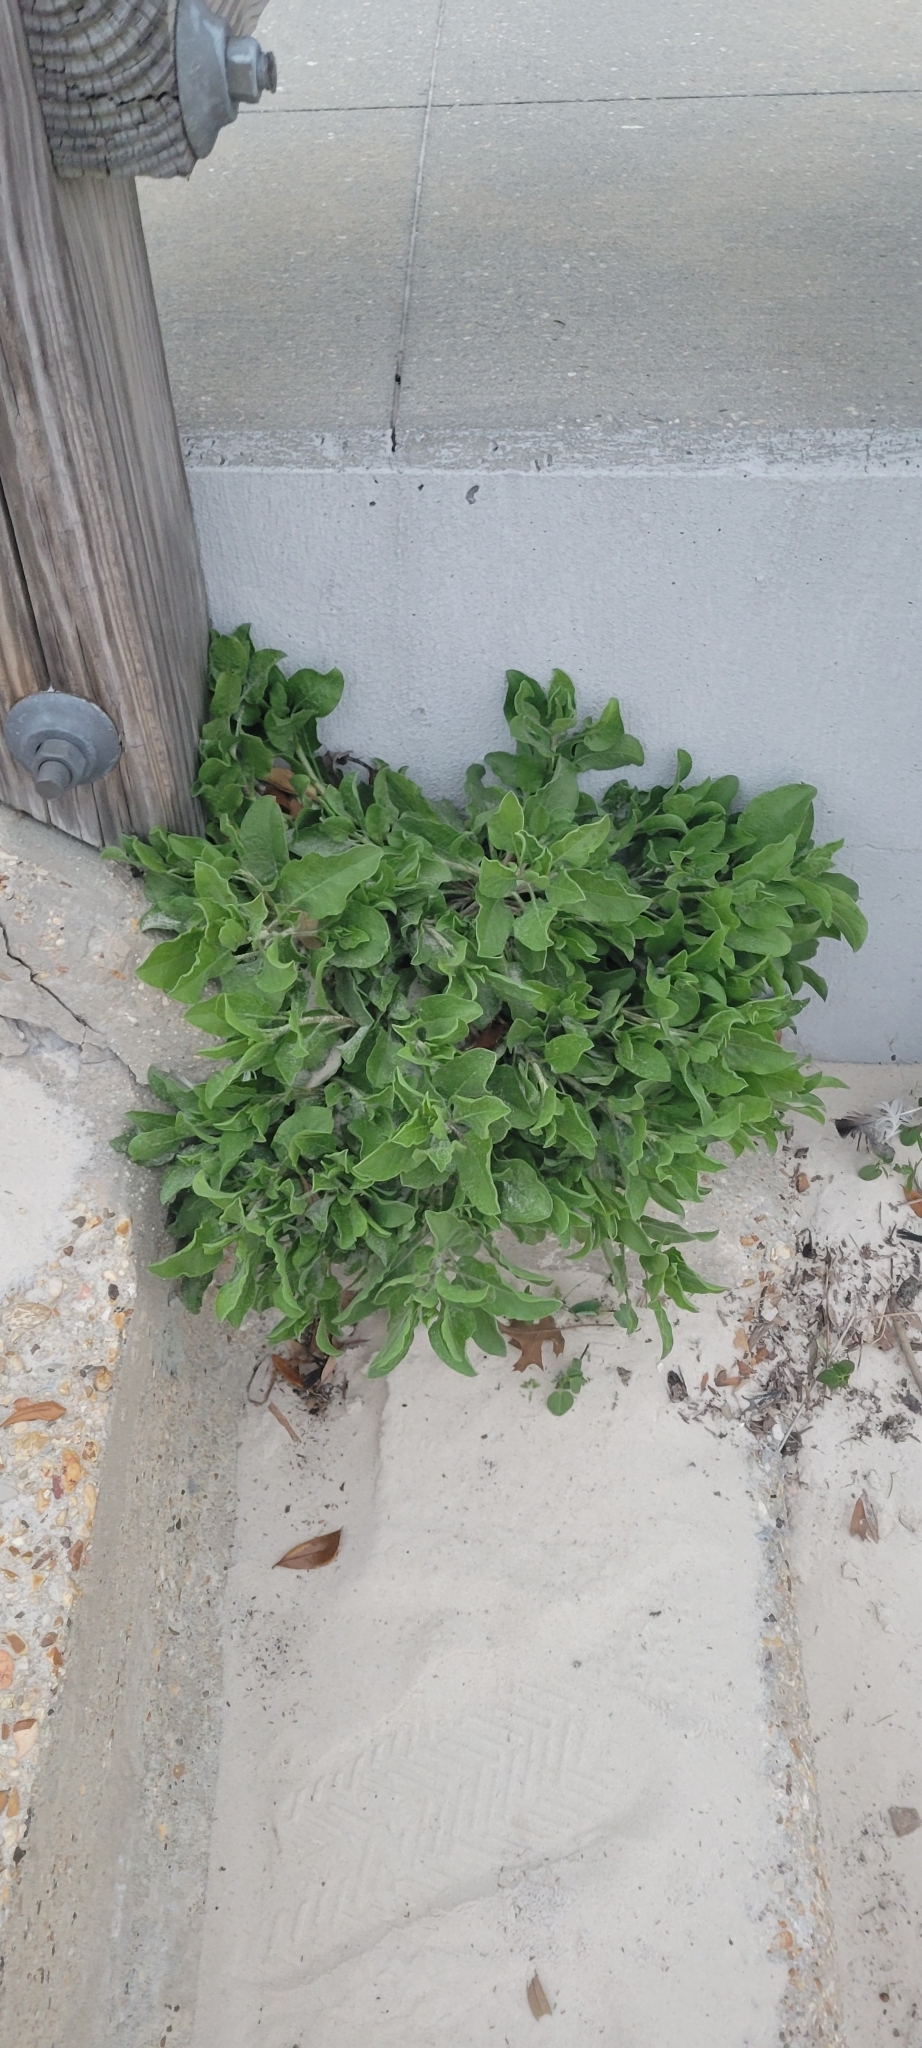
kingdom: Plantae
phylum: Tracheophyta
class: Magnoliopsida
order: Asterales
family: Asteraceae
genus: Heterotheca
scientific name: Heterotheca subaxillaris
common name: Camphorweed
